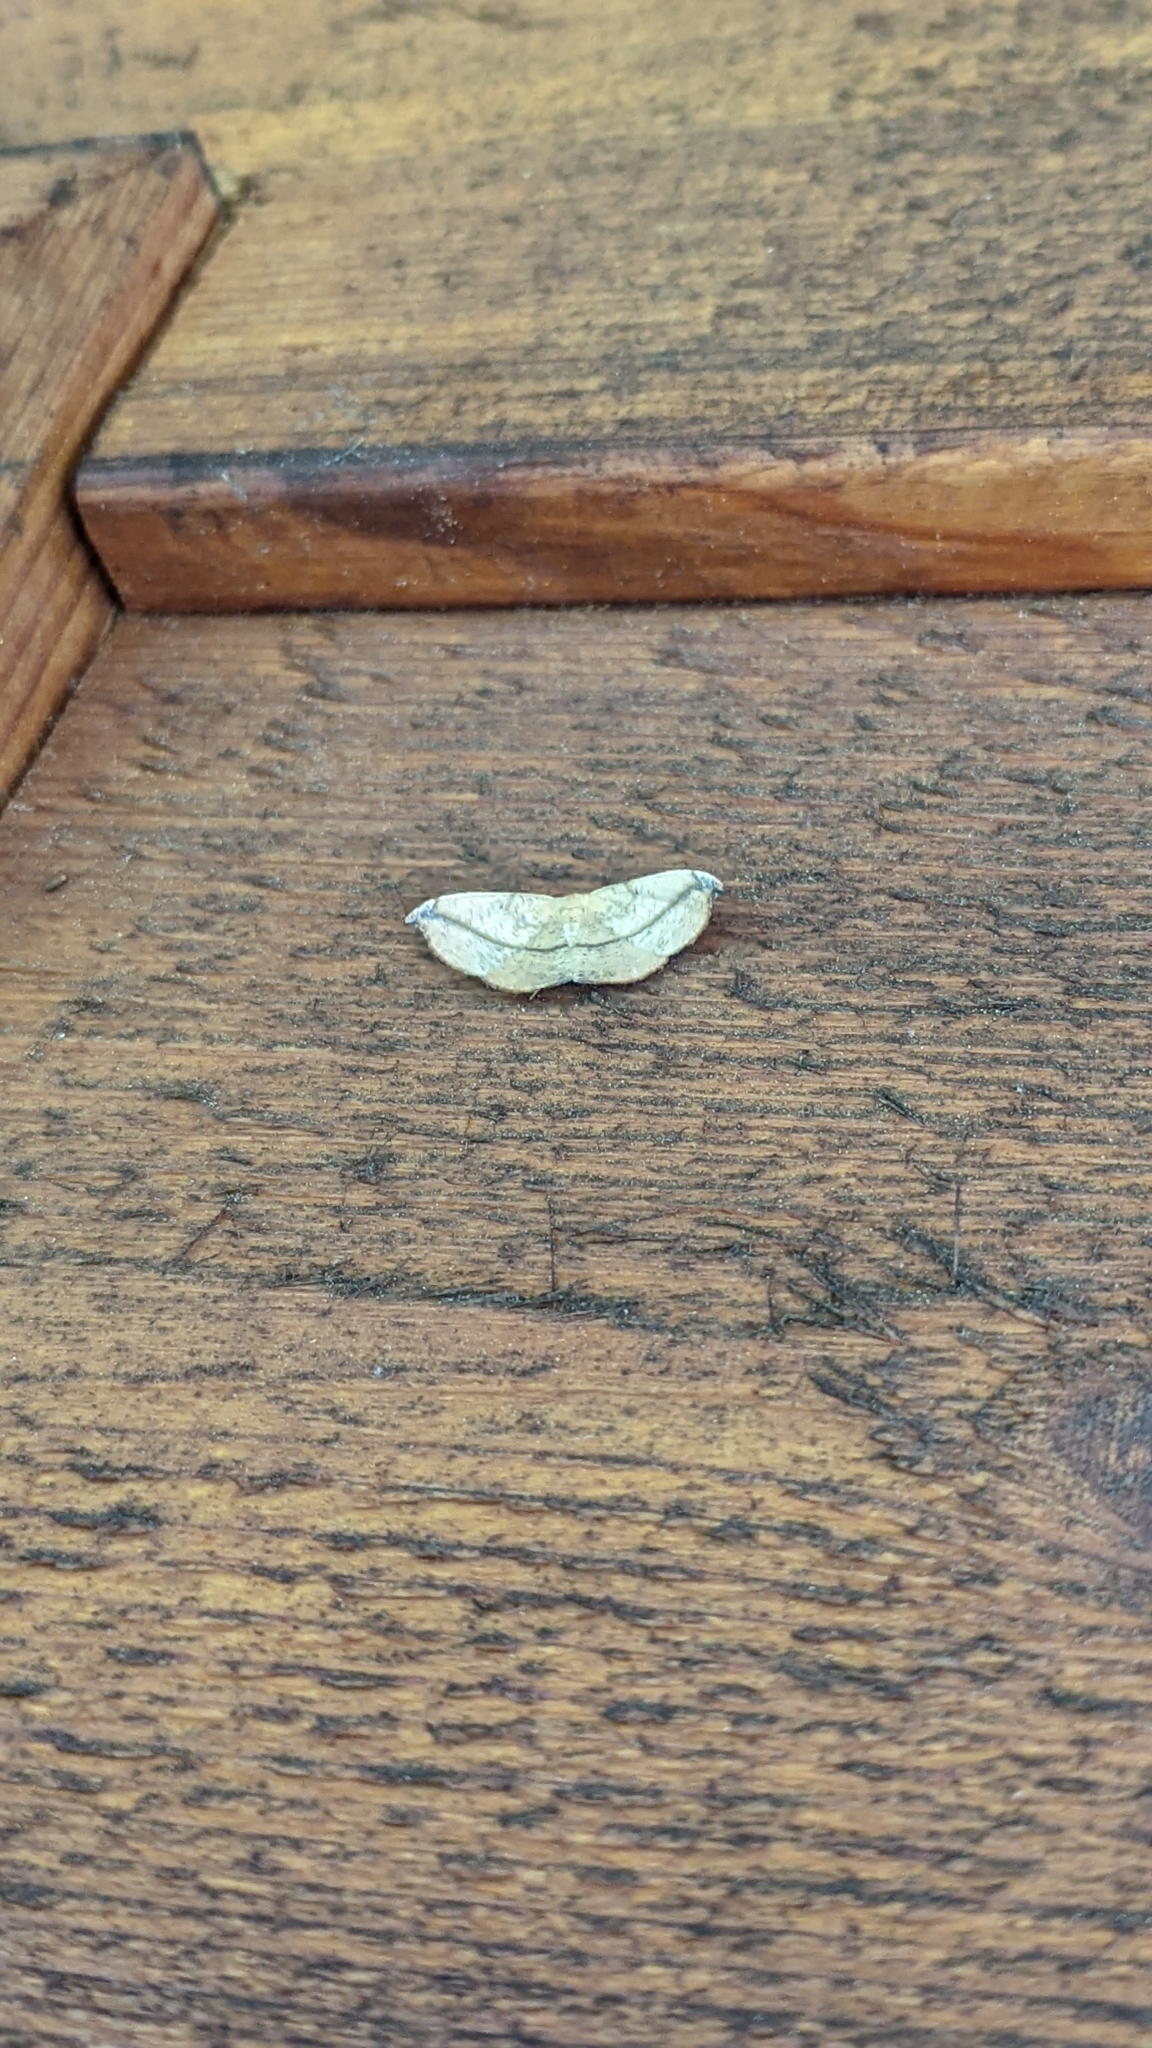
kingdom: Animalia
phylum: Arthropoda
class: Insecta
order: Lepidoptera
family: Geometridae
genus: Patalene
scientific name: Patalene olyzonaria
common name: Juniper geometer moth
